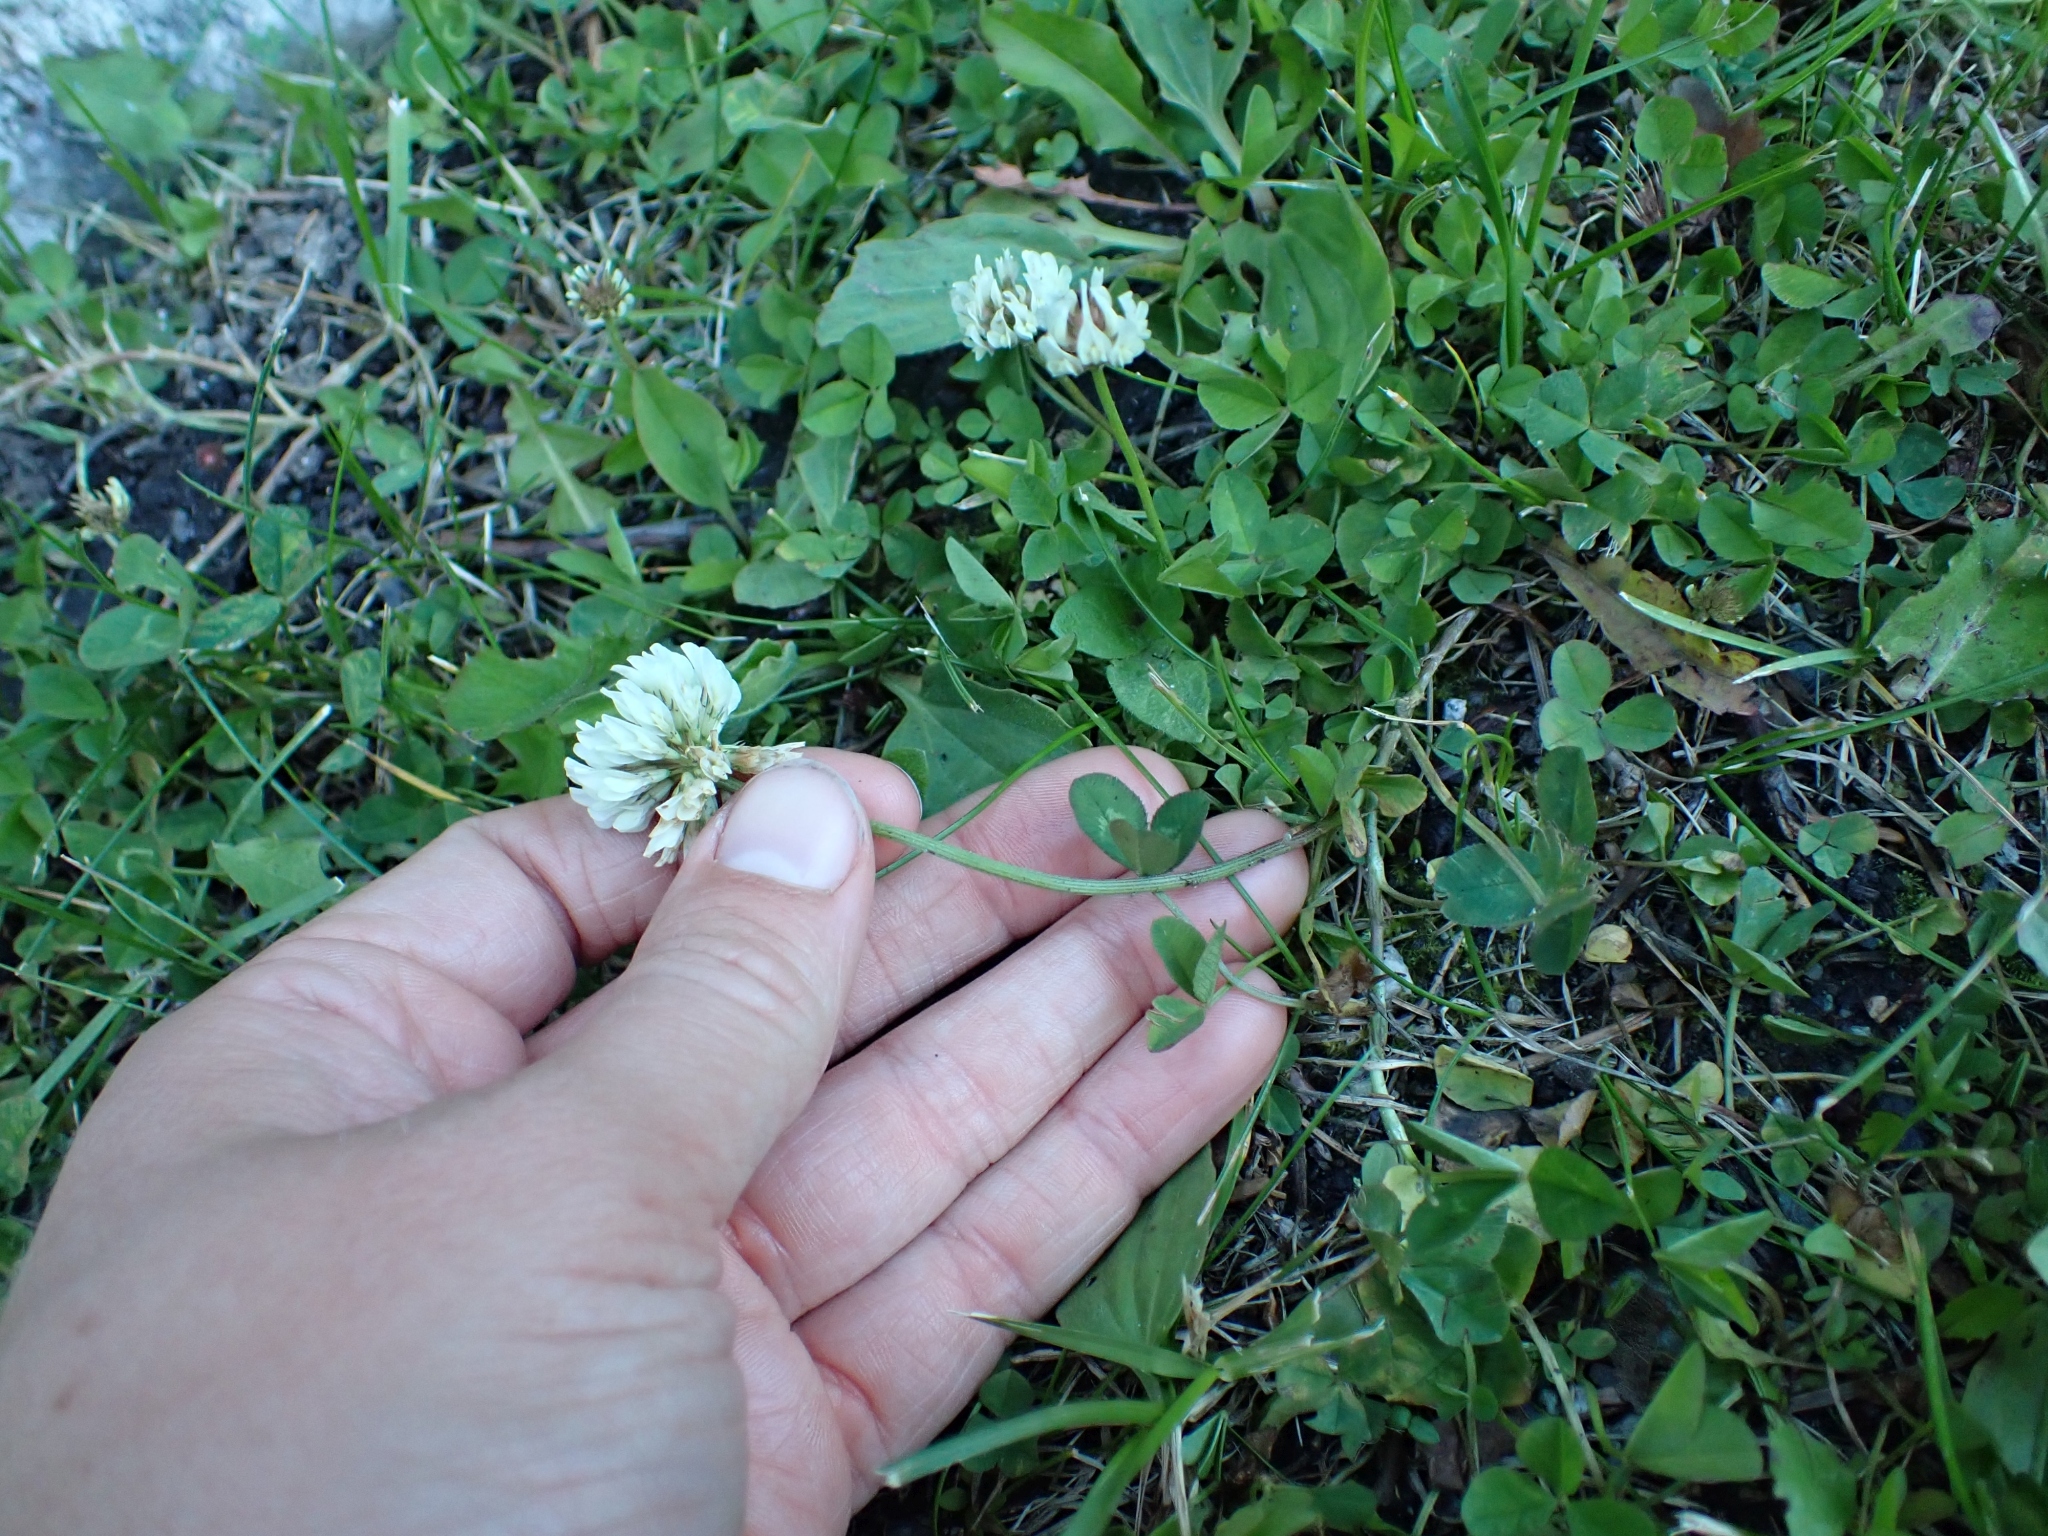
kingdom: Plantae
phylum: Tracheophyta
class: Magnoliopsida
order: Fabales
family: Fabaceae
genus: Trifolium
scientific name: Trifolium repens
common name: White clover
